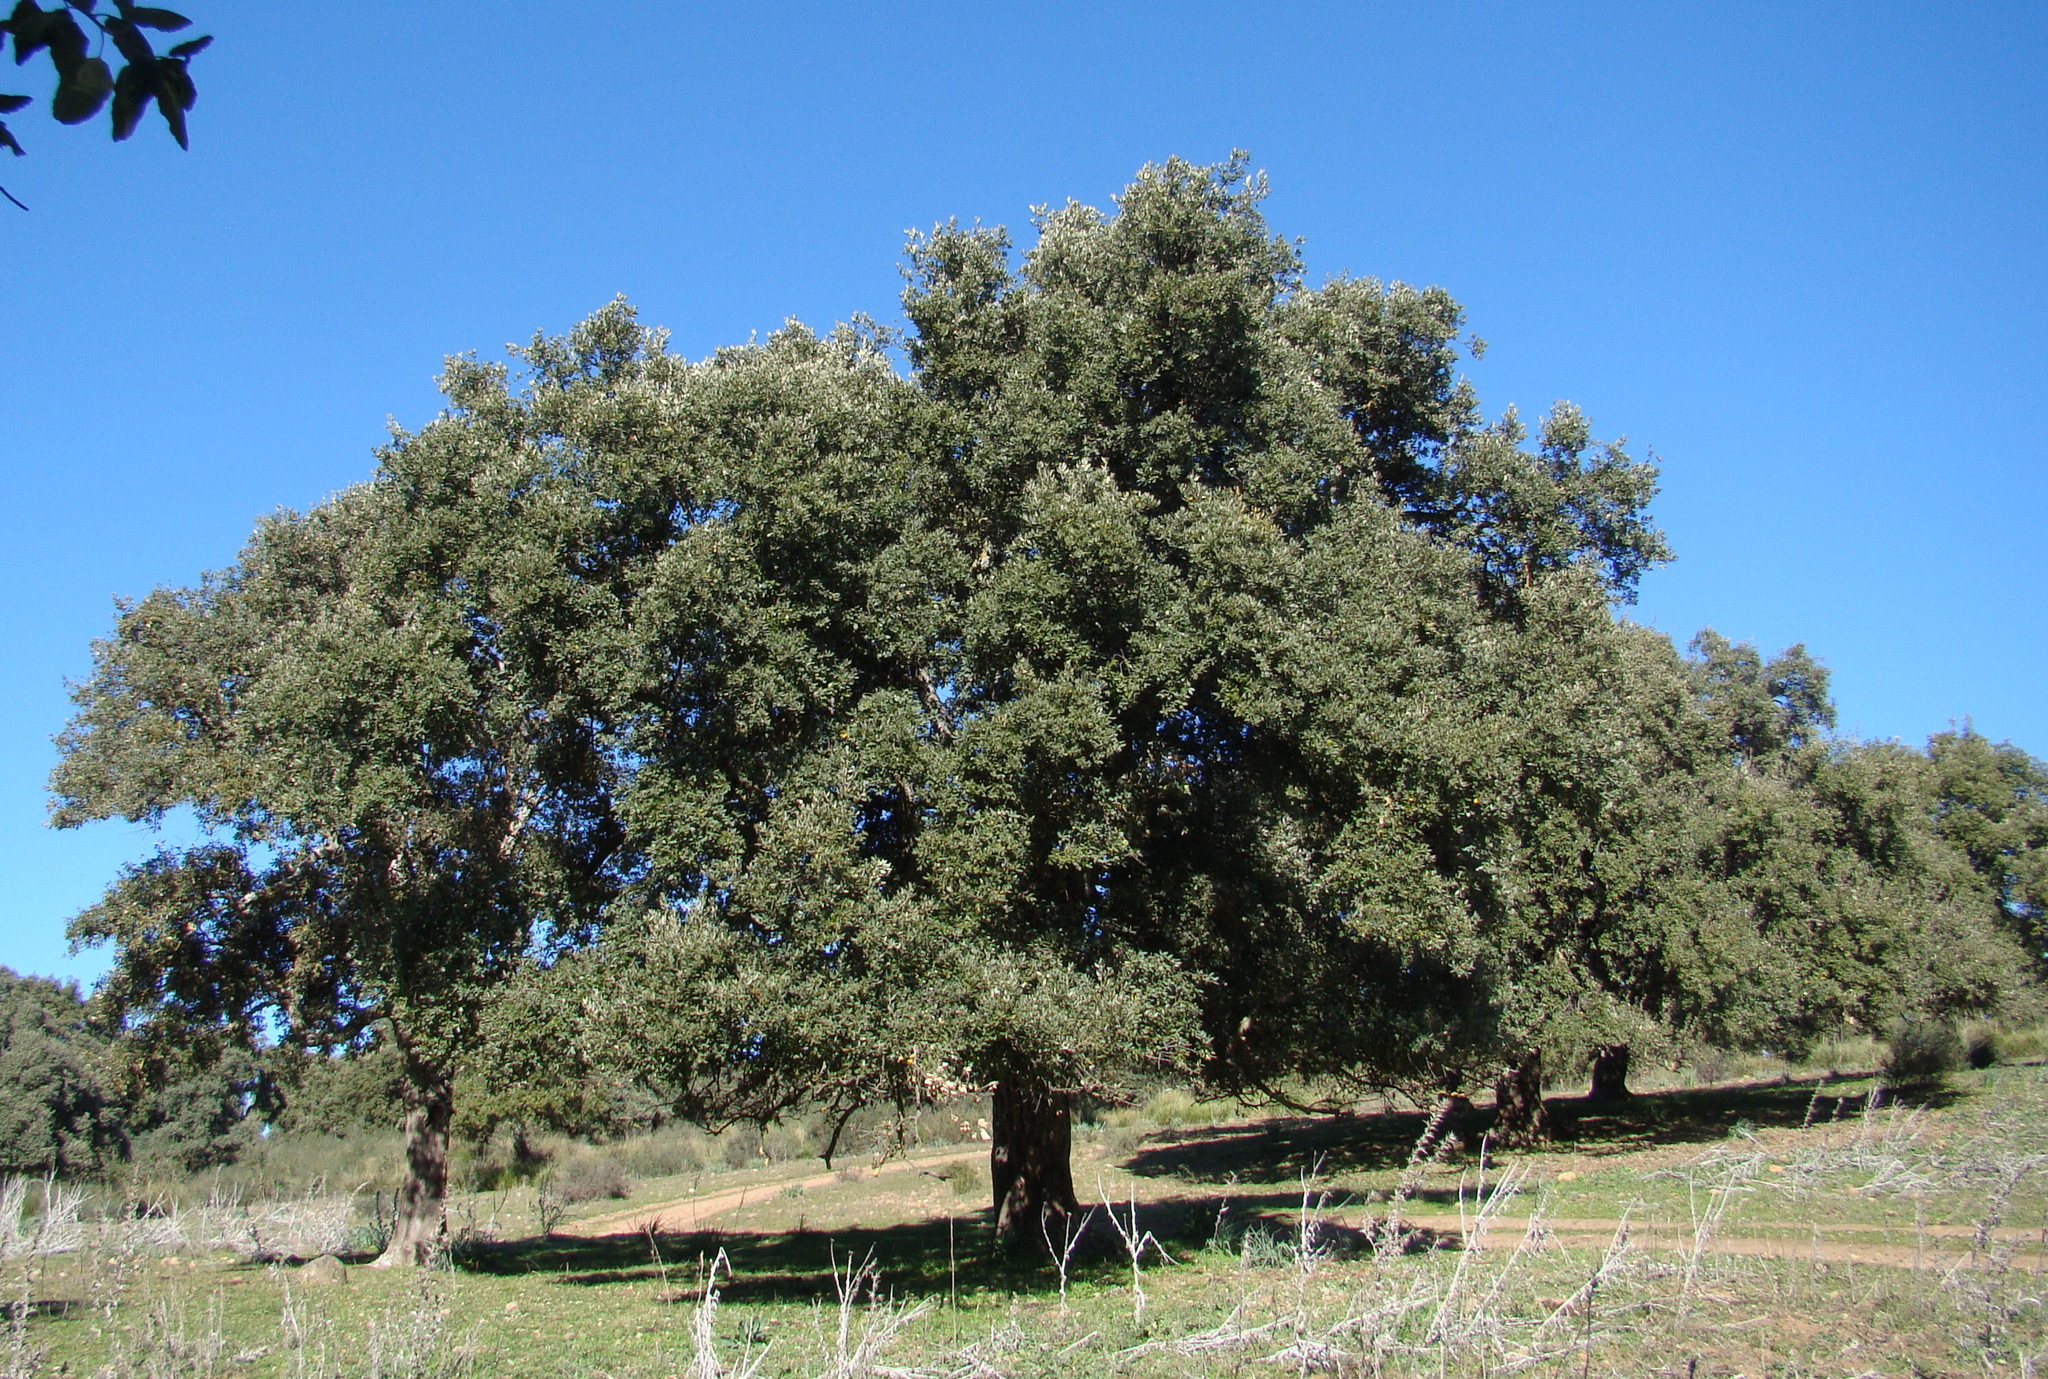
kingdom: Plantae
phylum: Tracheophyta
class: Magnoliopsida
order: Fagales
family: Fagaceae
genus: Quercus
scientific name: Quercus suber
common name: Cork oak
